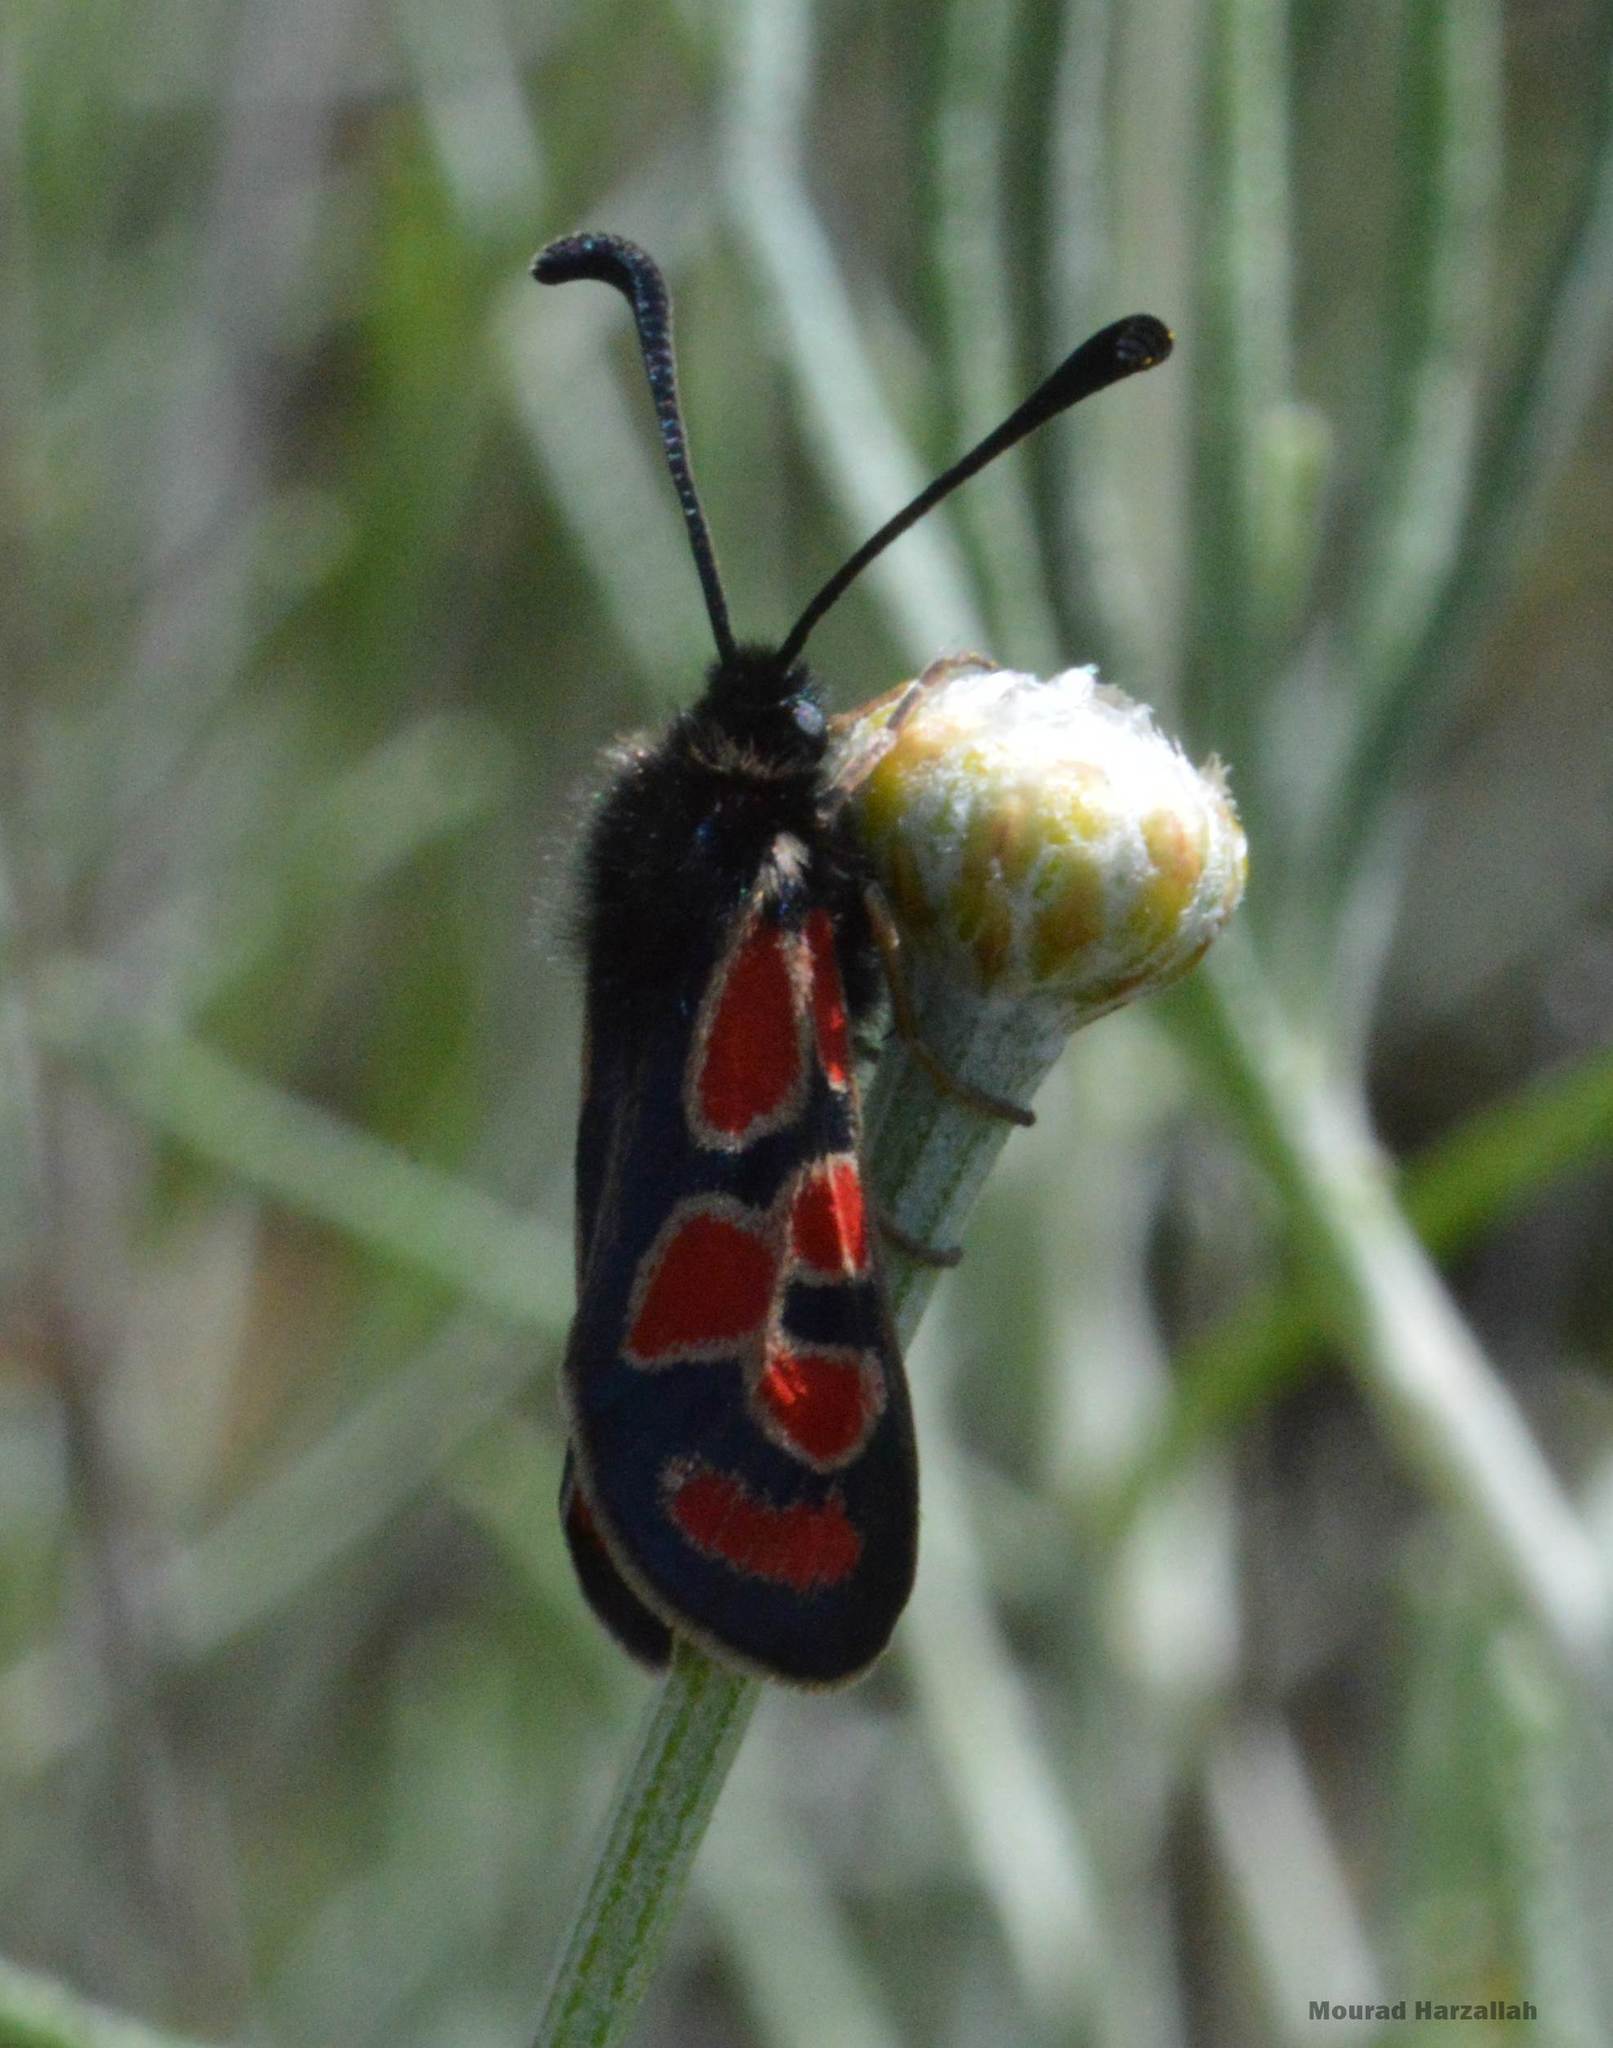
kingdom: Animalia
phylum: Arthropoda
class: Insecta
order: Lepidoptera
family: Zygaenidae
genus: Zygaena
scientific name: Zygaena orana
